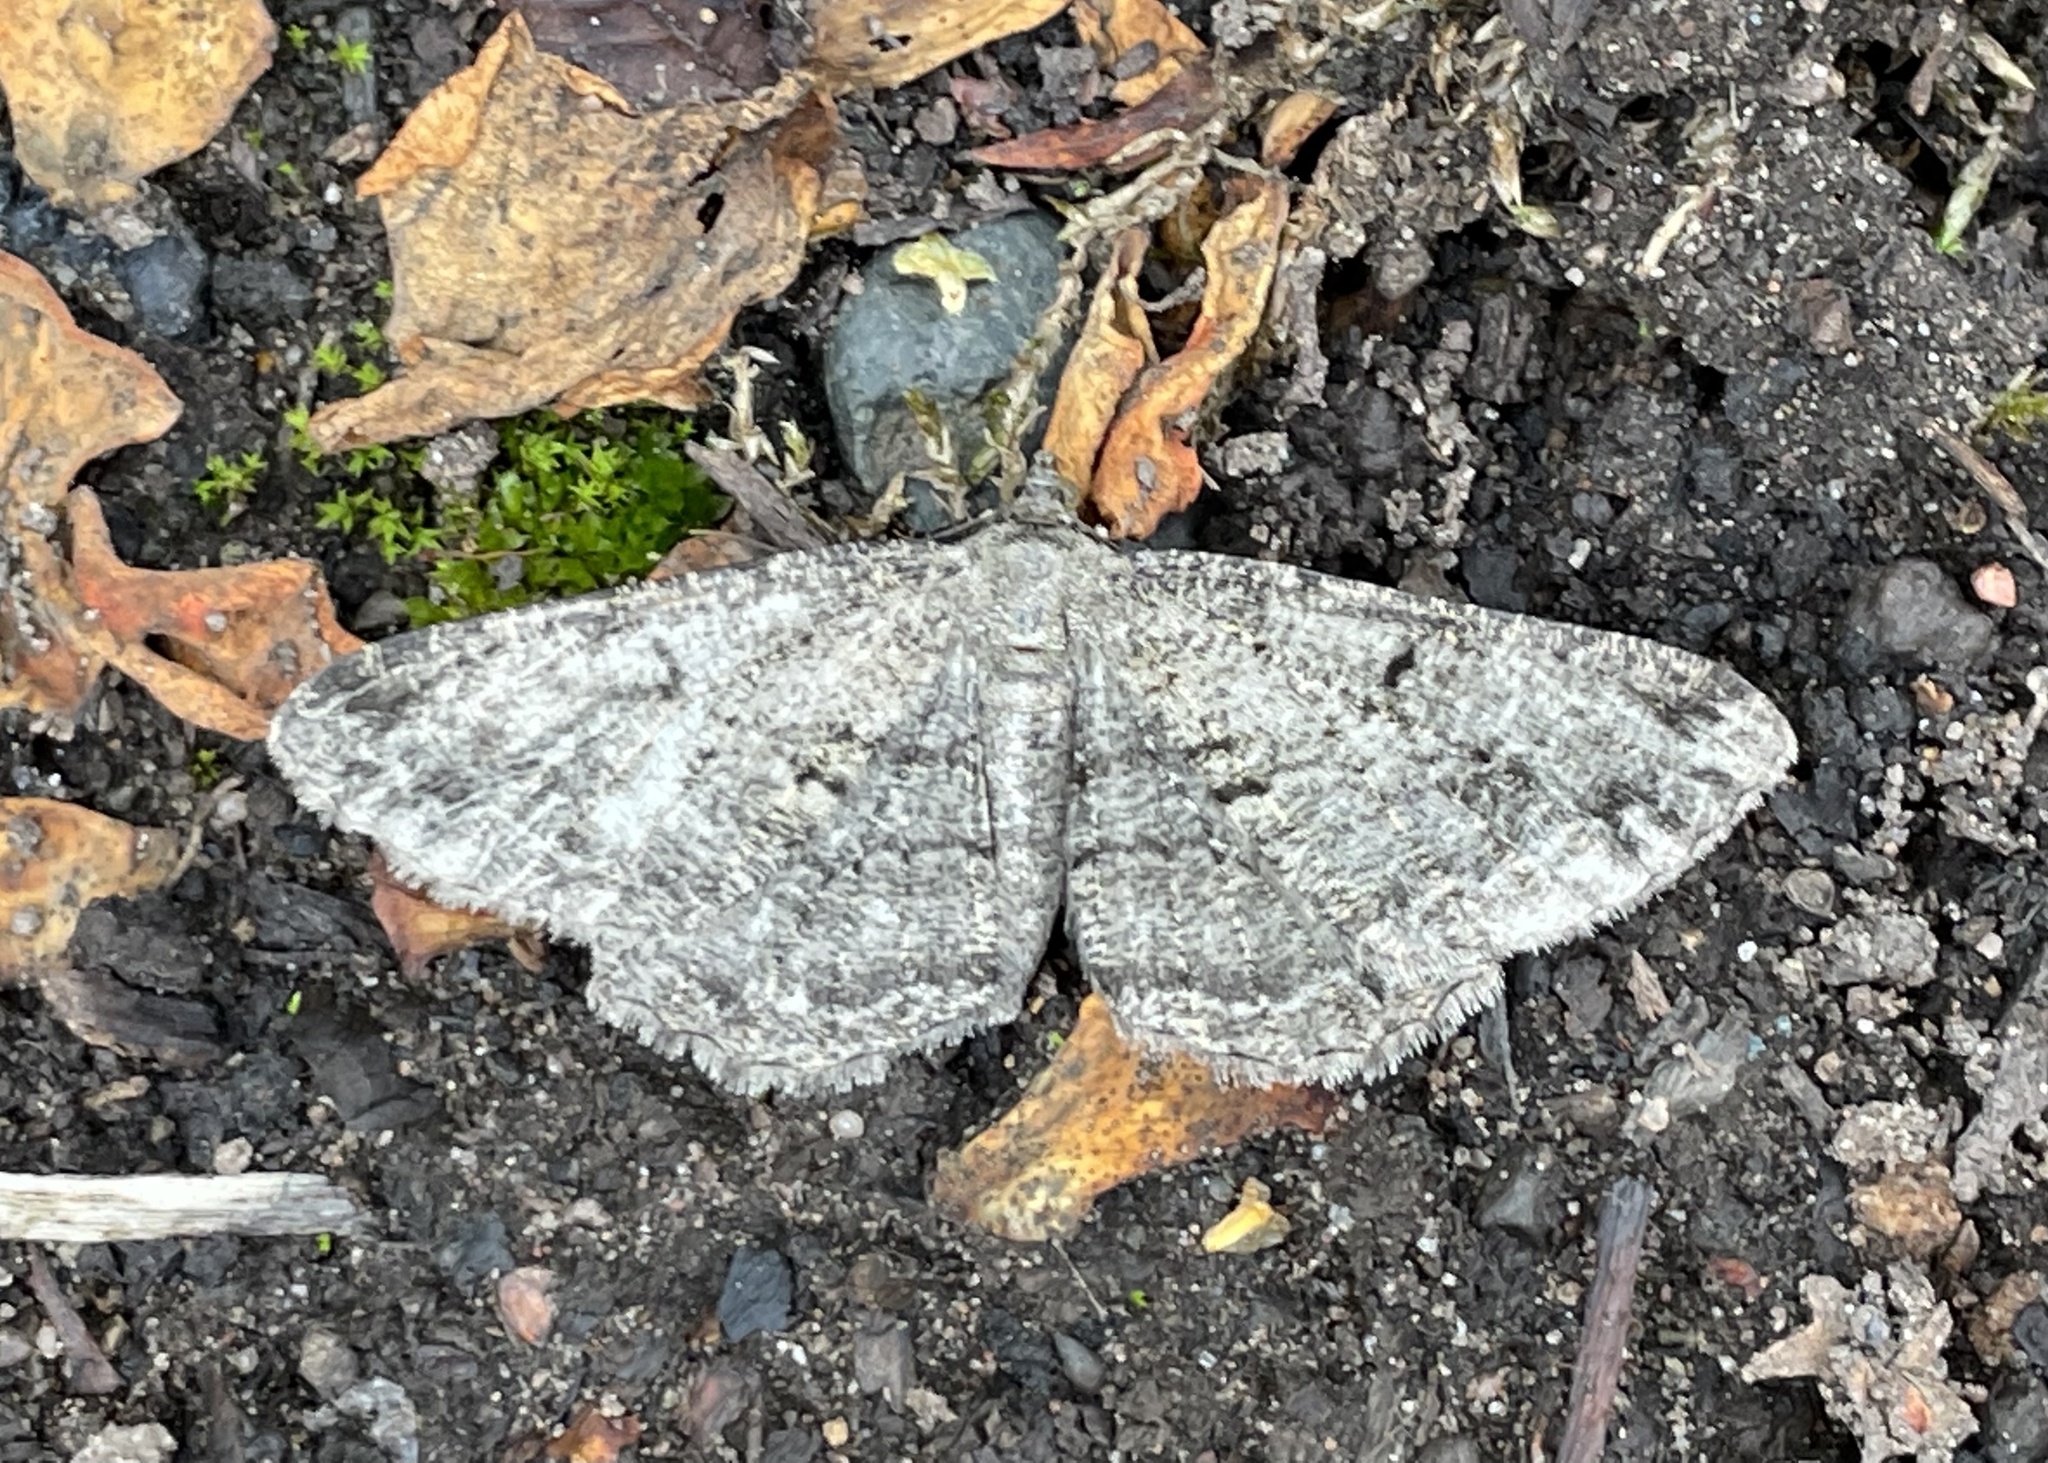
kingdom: Animalia
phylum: Arthropoda
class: Insecta
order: Lepidoptera
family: Geometridae
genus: Peribatodes
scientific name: Peribatodes rhomboidaria
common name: Willow beauty
